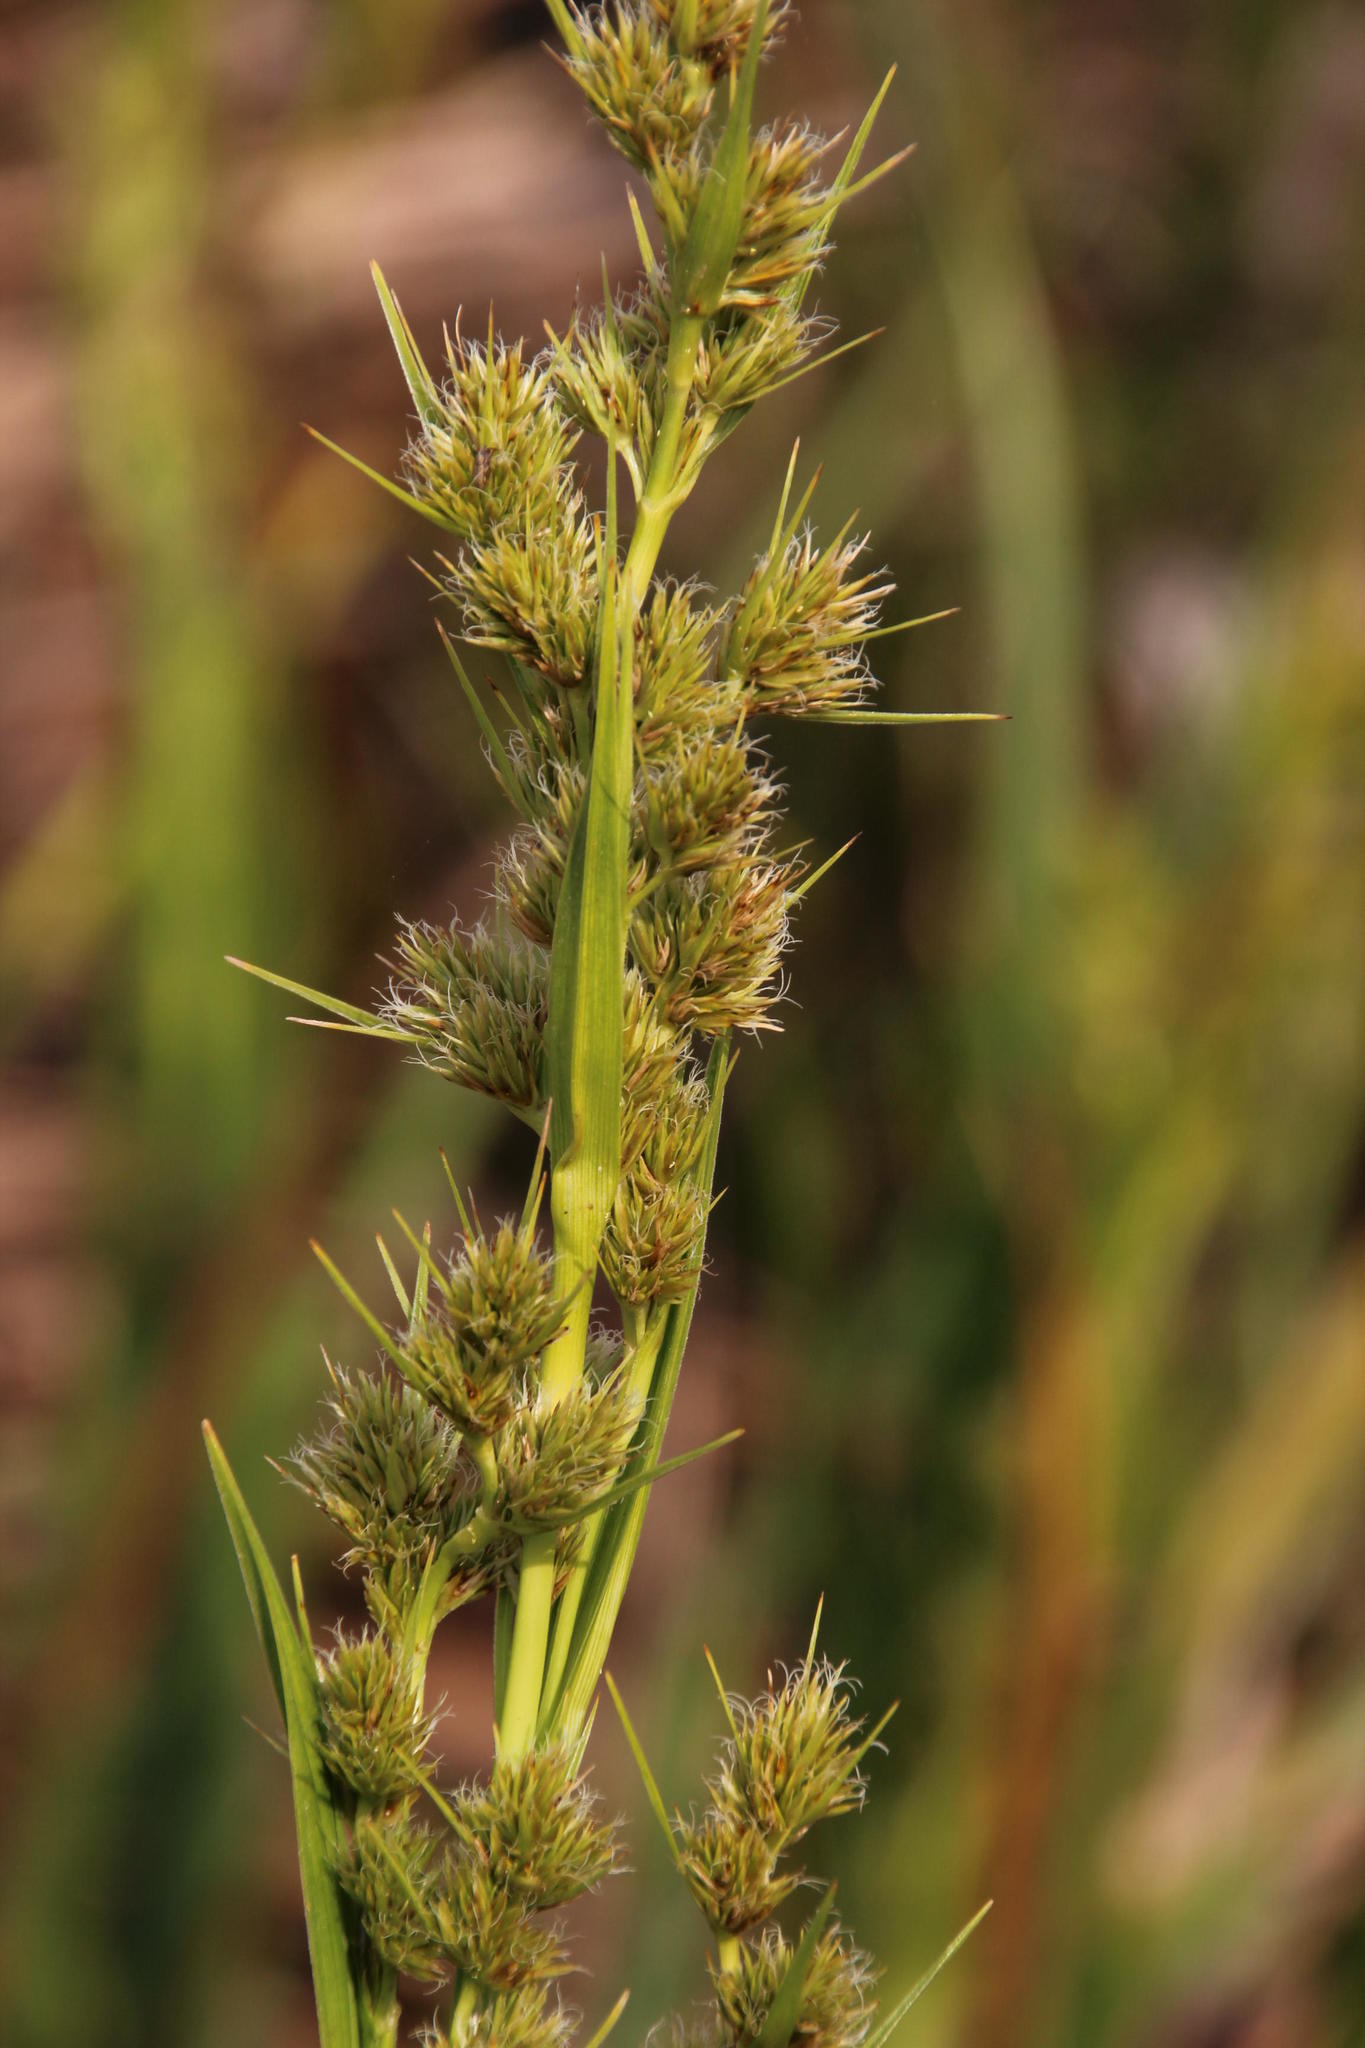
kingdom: Plantae
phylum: Tracheophyta
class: Liliopsida
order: Poales
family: Cyperaceae
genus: Carpha
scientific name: Carpha glomerata
